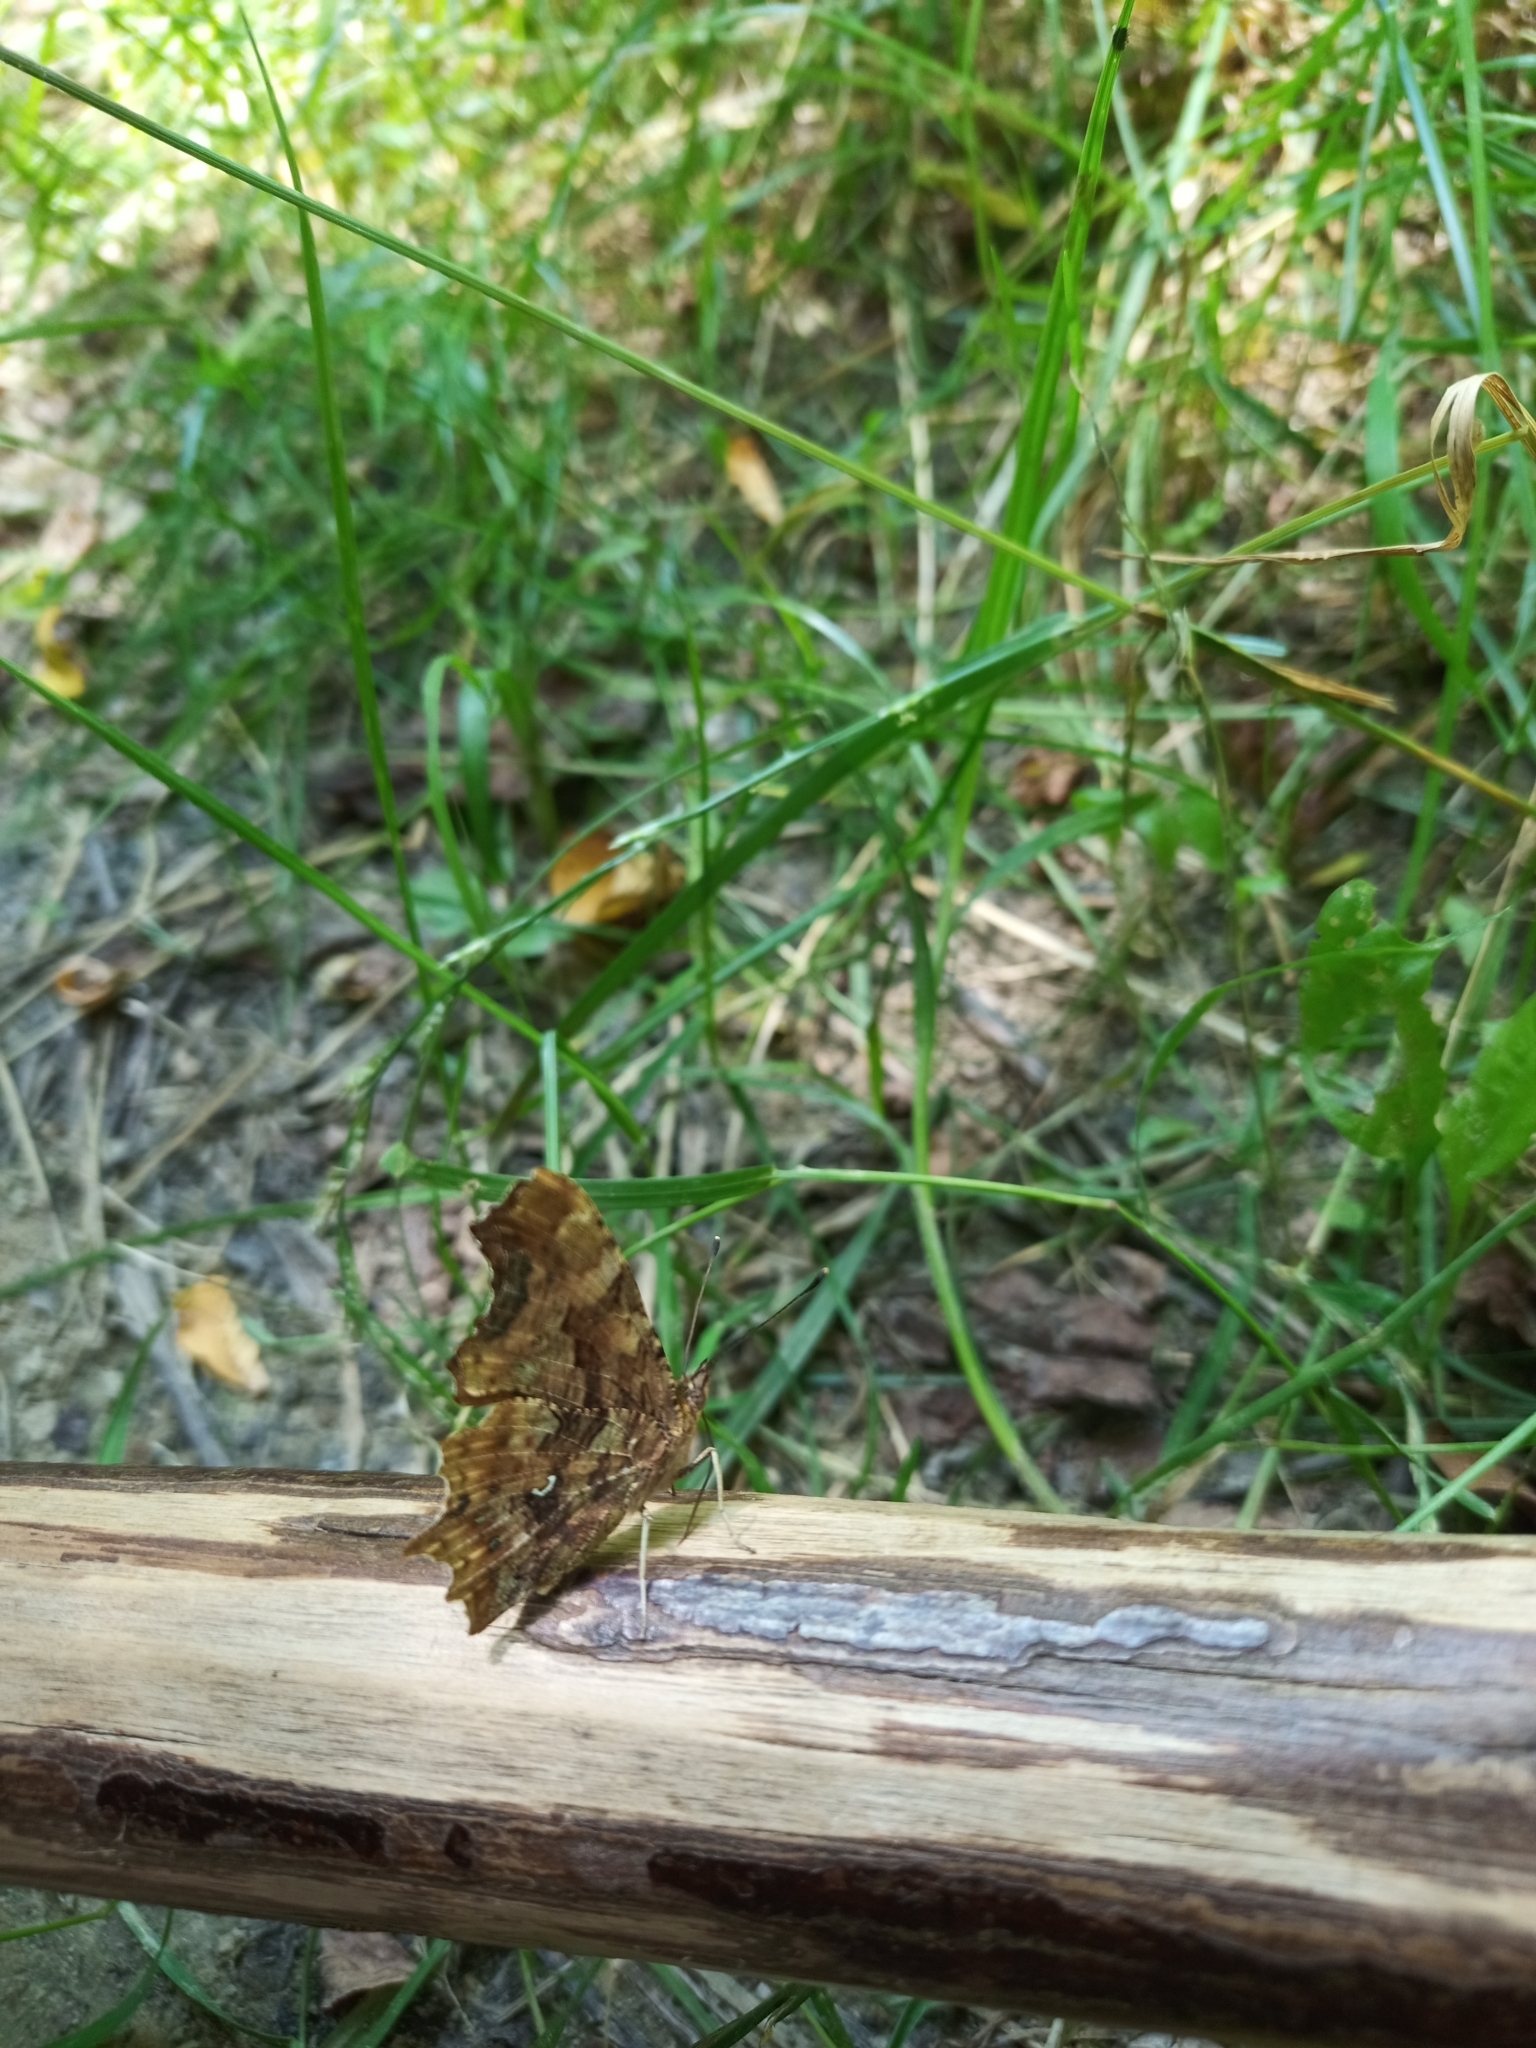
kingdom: Animalia
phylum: Arthropoda
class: Insecta
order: Lepidoptera
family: Nymphalidae
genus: Polygonia
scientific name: Polygonia c-album
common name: Comma
